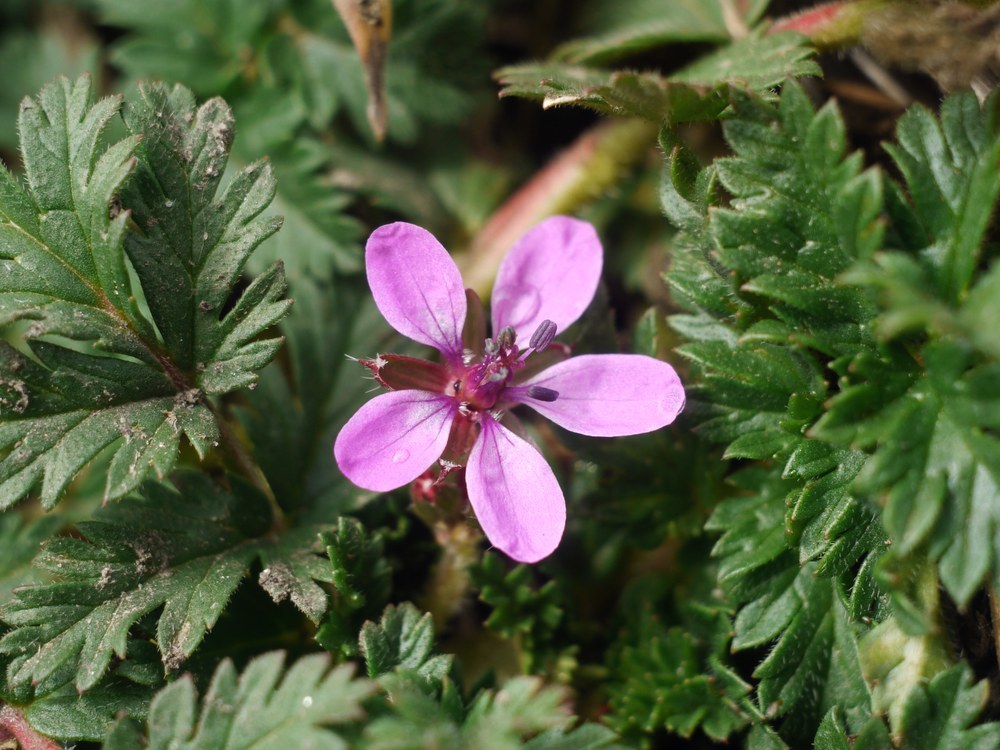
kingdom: Plantae
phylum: Tracheophyta
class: Magnoliopsida
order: Geraniales
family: Geraniaceae
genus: Erodium
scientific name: Erodium cicutarium
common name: Common stork's-bill
